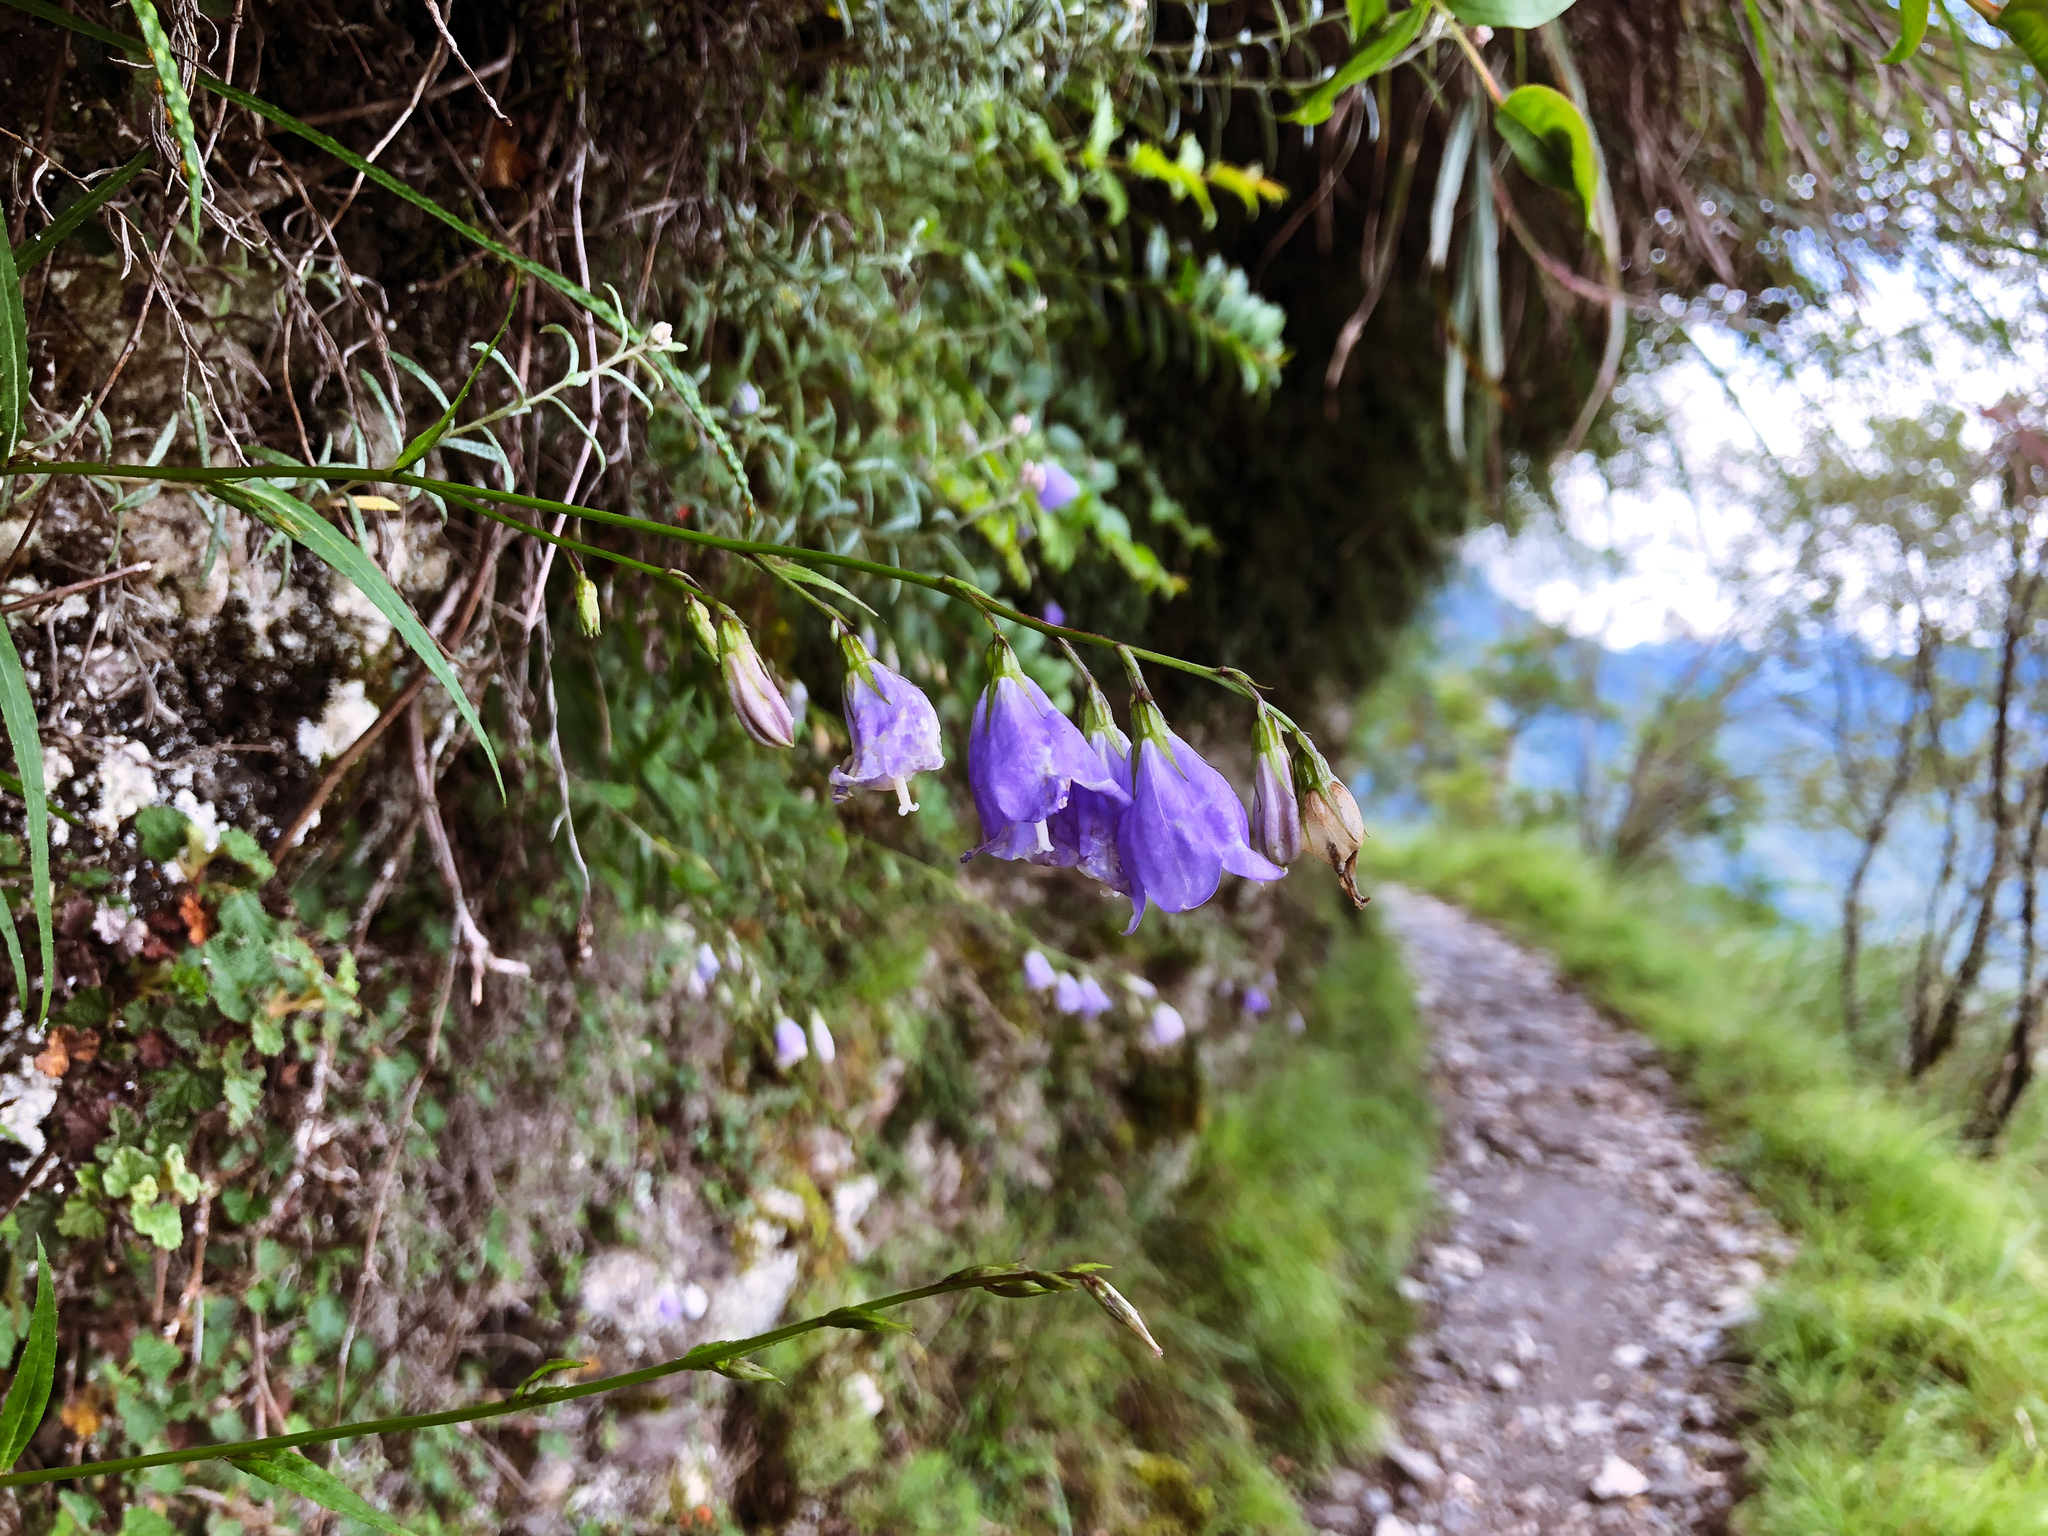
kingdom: Plantae
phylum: Tracheophyta
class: Magnoliopsida
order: Asterales
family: Campanulaceae
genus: Adenophora
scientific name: Adenophora morrisonensis
